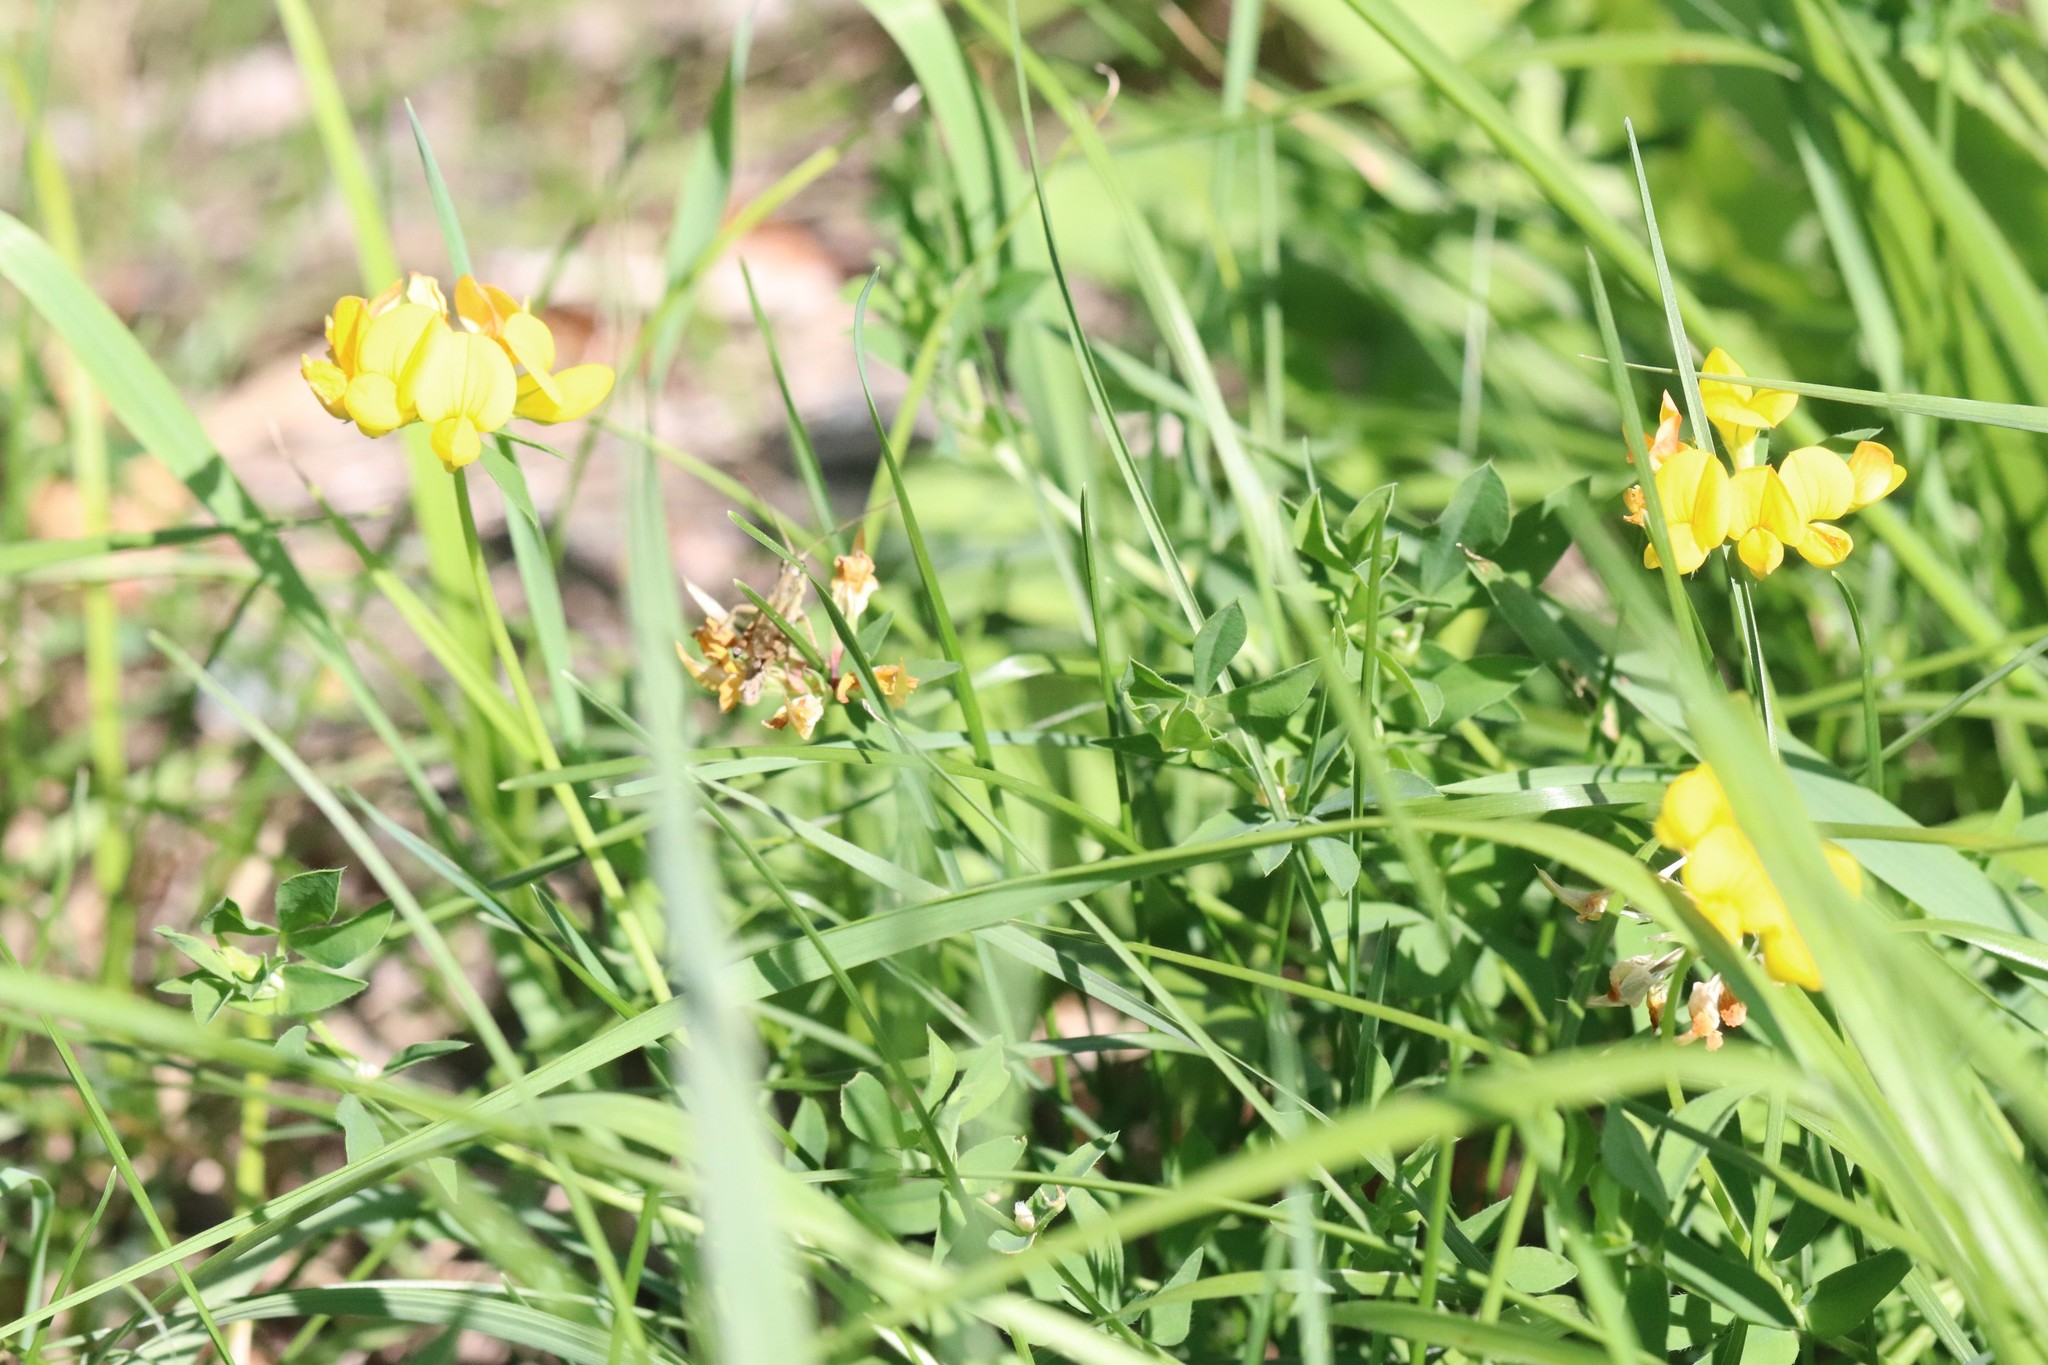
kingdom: Plantae
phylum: Tracheophyta
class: Magnoliopsida
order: Fabales
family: Fabaceae
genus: Lotus
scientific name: Lotus corniculatus
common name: Common bird's-foot-trefoil
